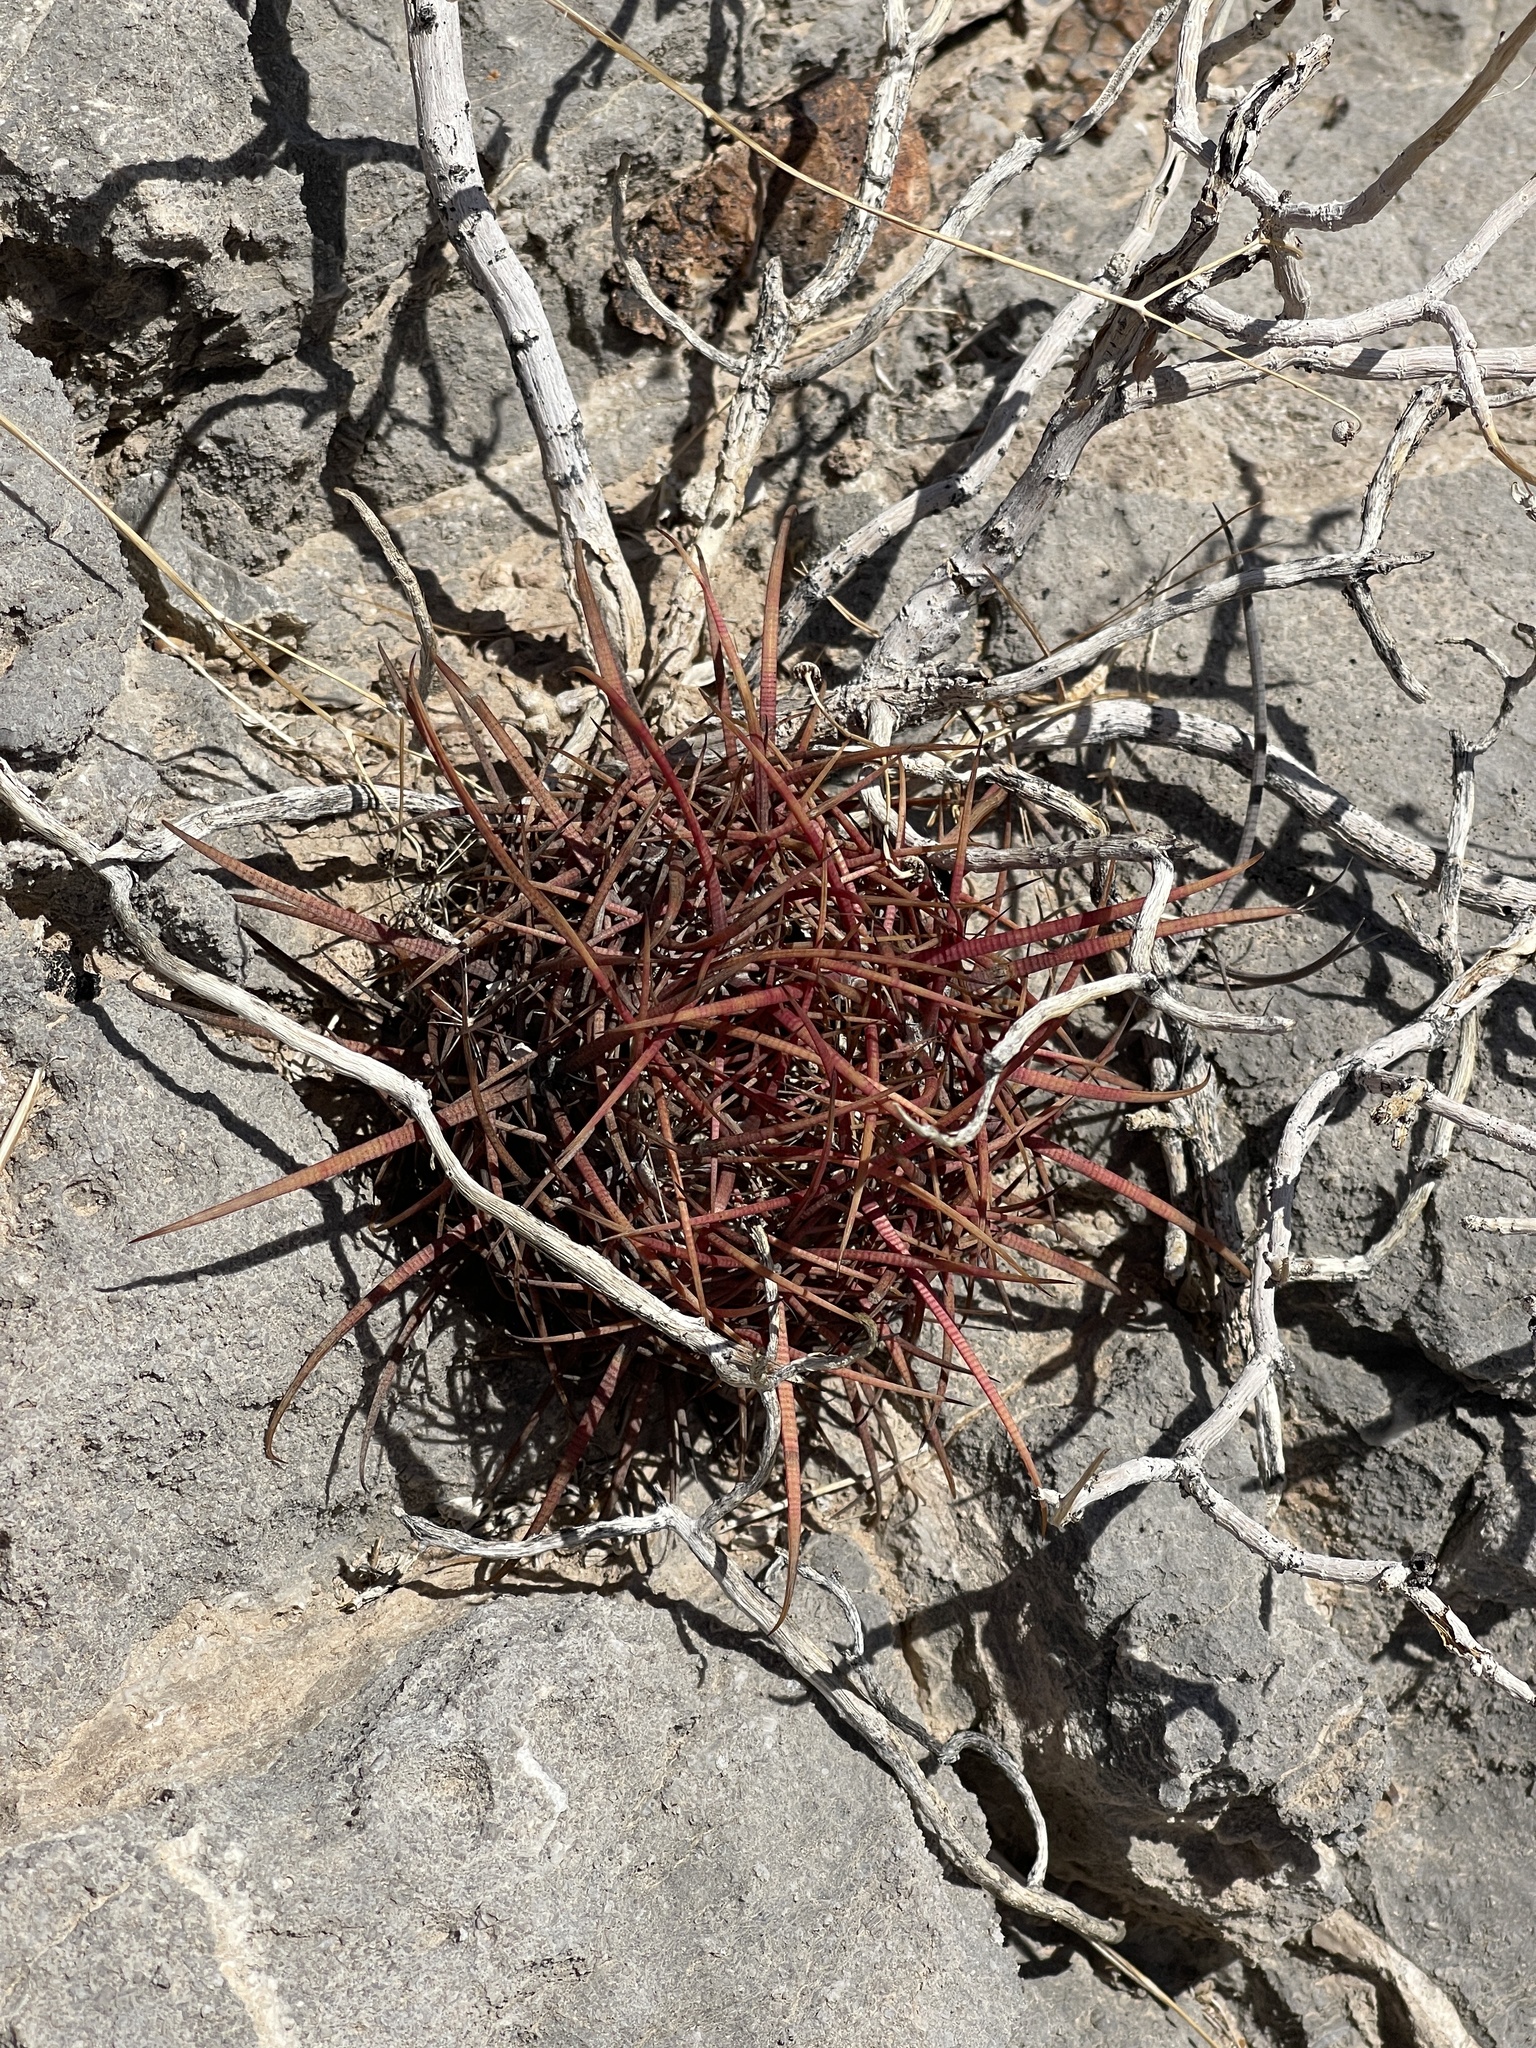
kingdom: Plantae
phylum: Tracheophyta
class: Magnoliopsida
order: Caryophyllales
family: Cactaceae
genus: Ferocactus
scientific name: Ferocactus cylindraceus
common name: California barrel cactus
